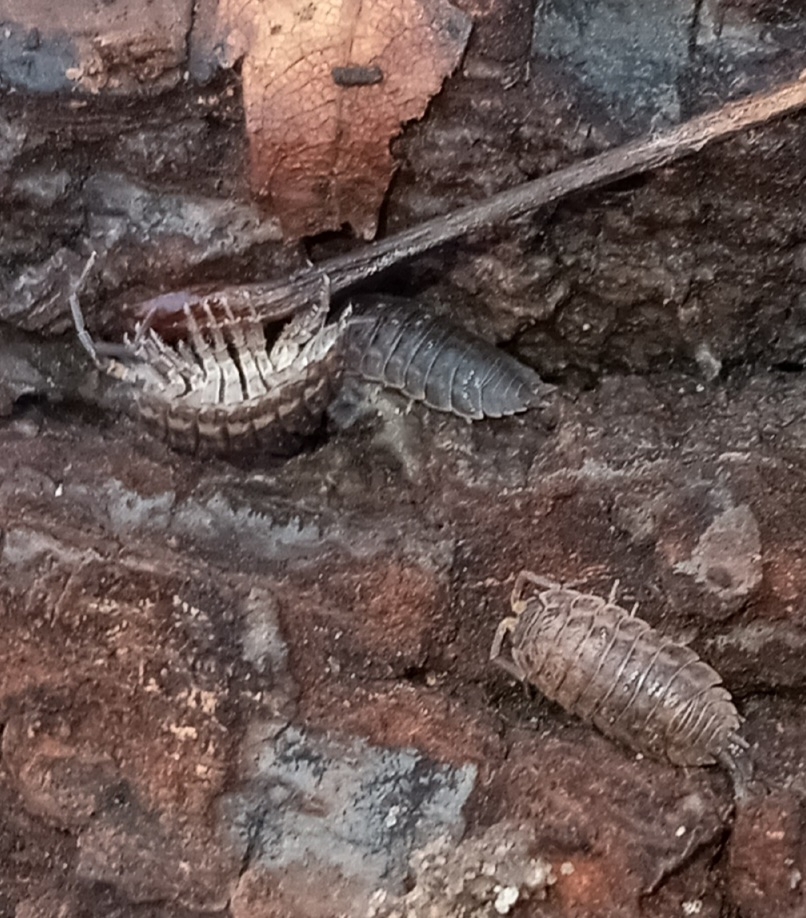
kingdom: Animalia
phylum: Arthropoda
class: Malacostraca
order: Isopoda
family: Trachelipodidae
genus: Trachelipus
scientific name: Trachelipus rathkii
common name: Isopod
